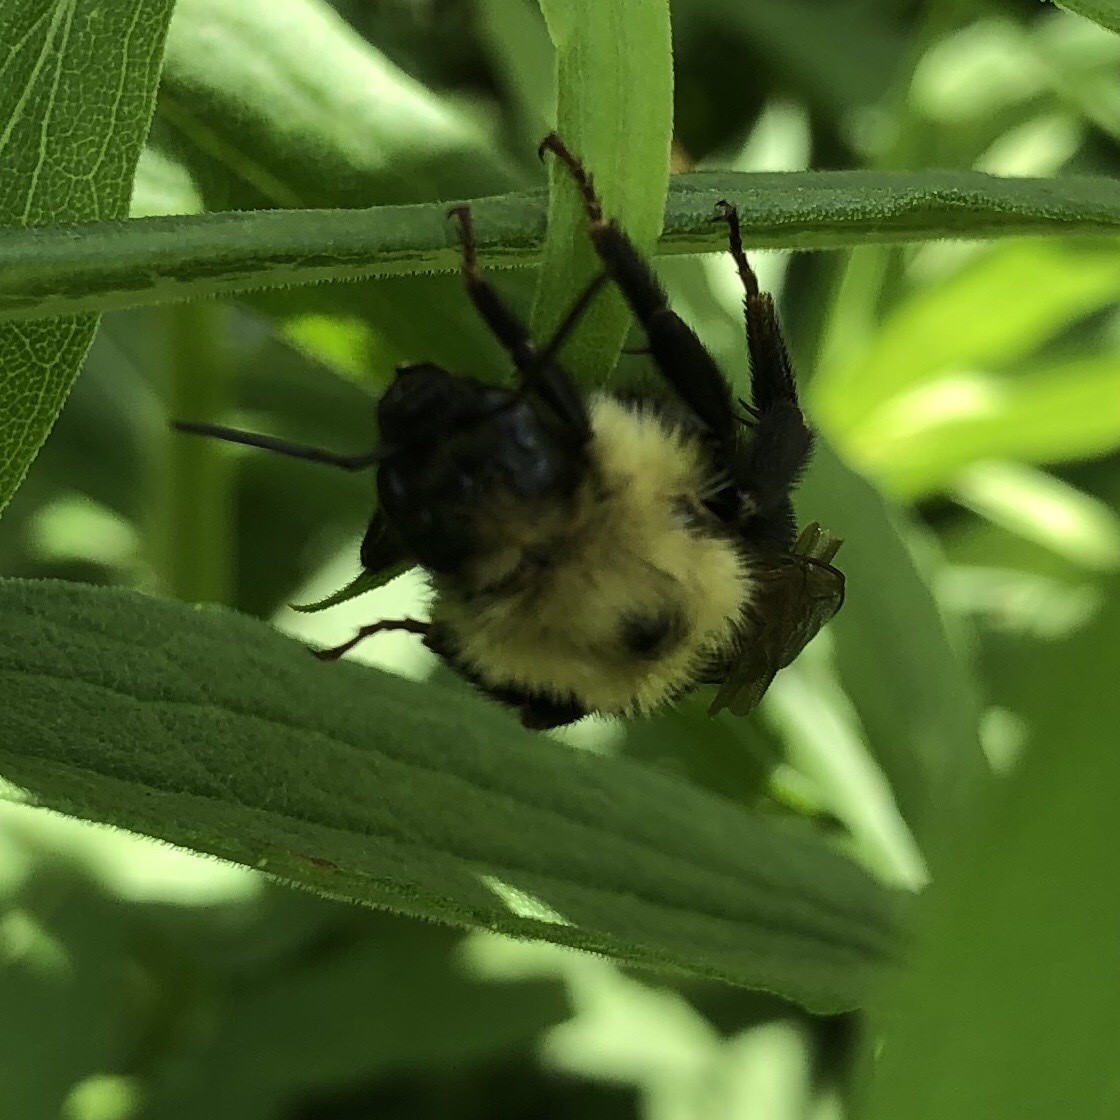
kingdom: Animalia
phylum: Arthropoda
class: Insecta
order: Hymenoptera
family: Apidae
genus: Bombus
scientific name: Bombus citrinus
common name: Lemon cuckoo bumble bee
